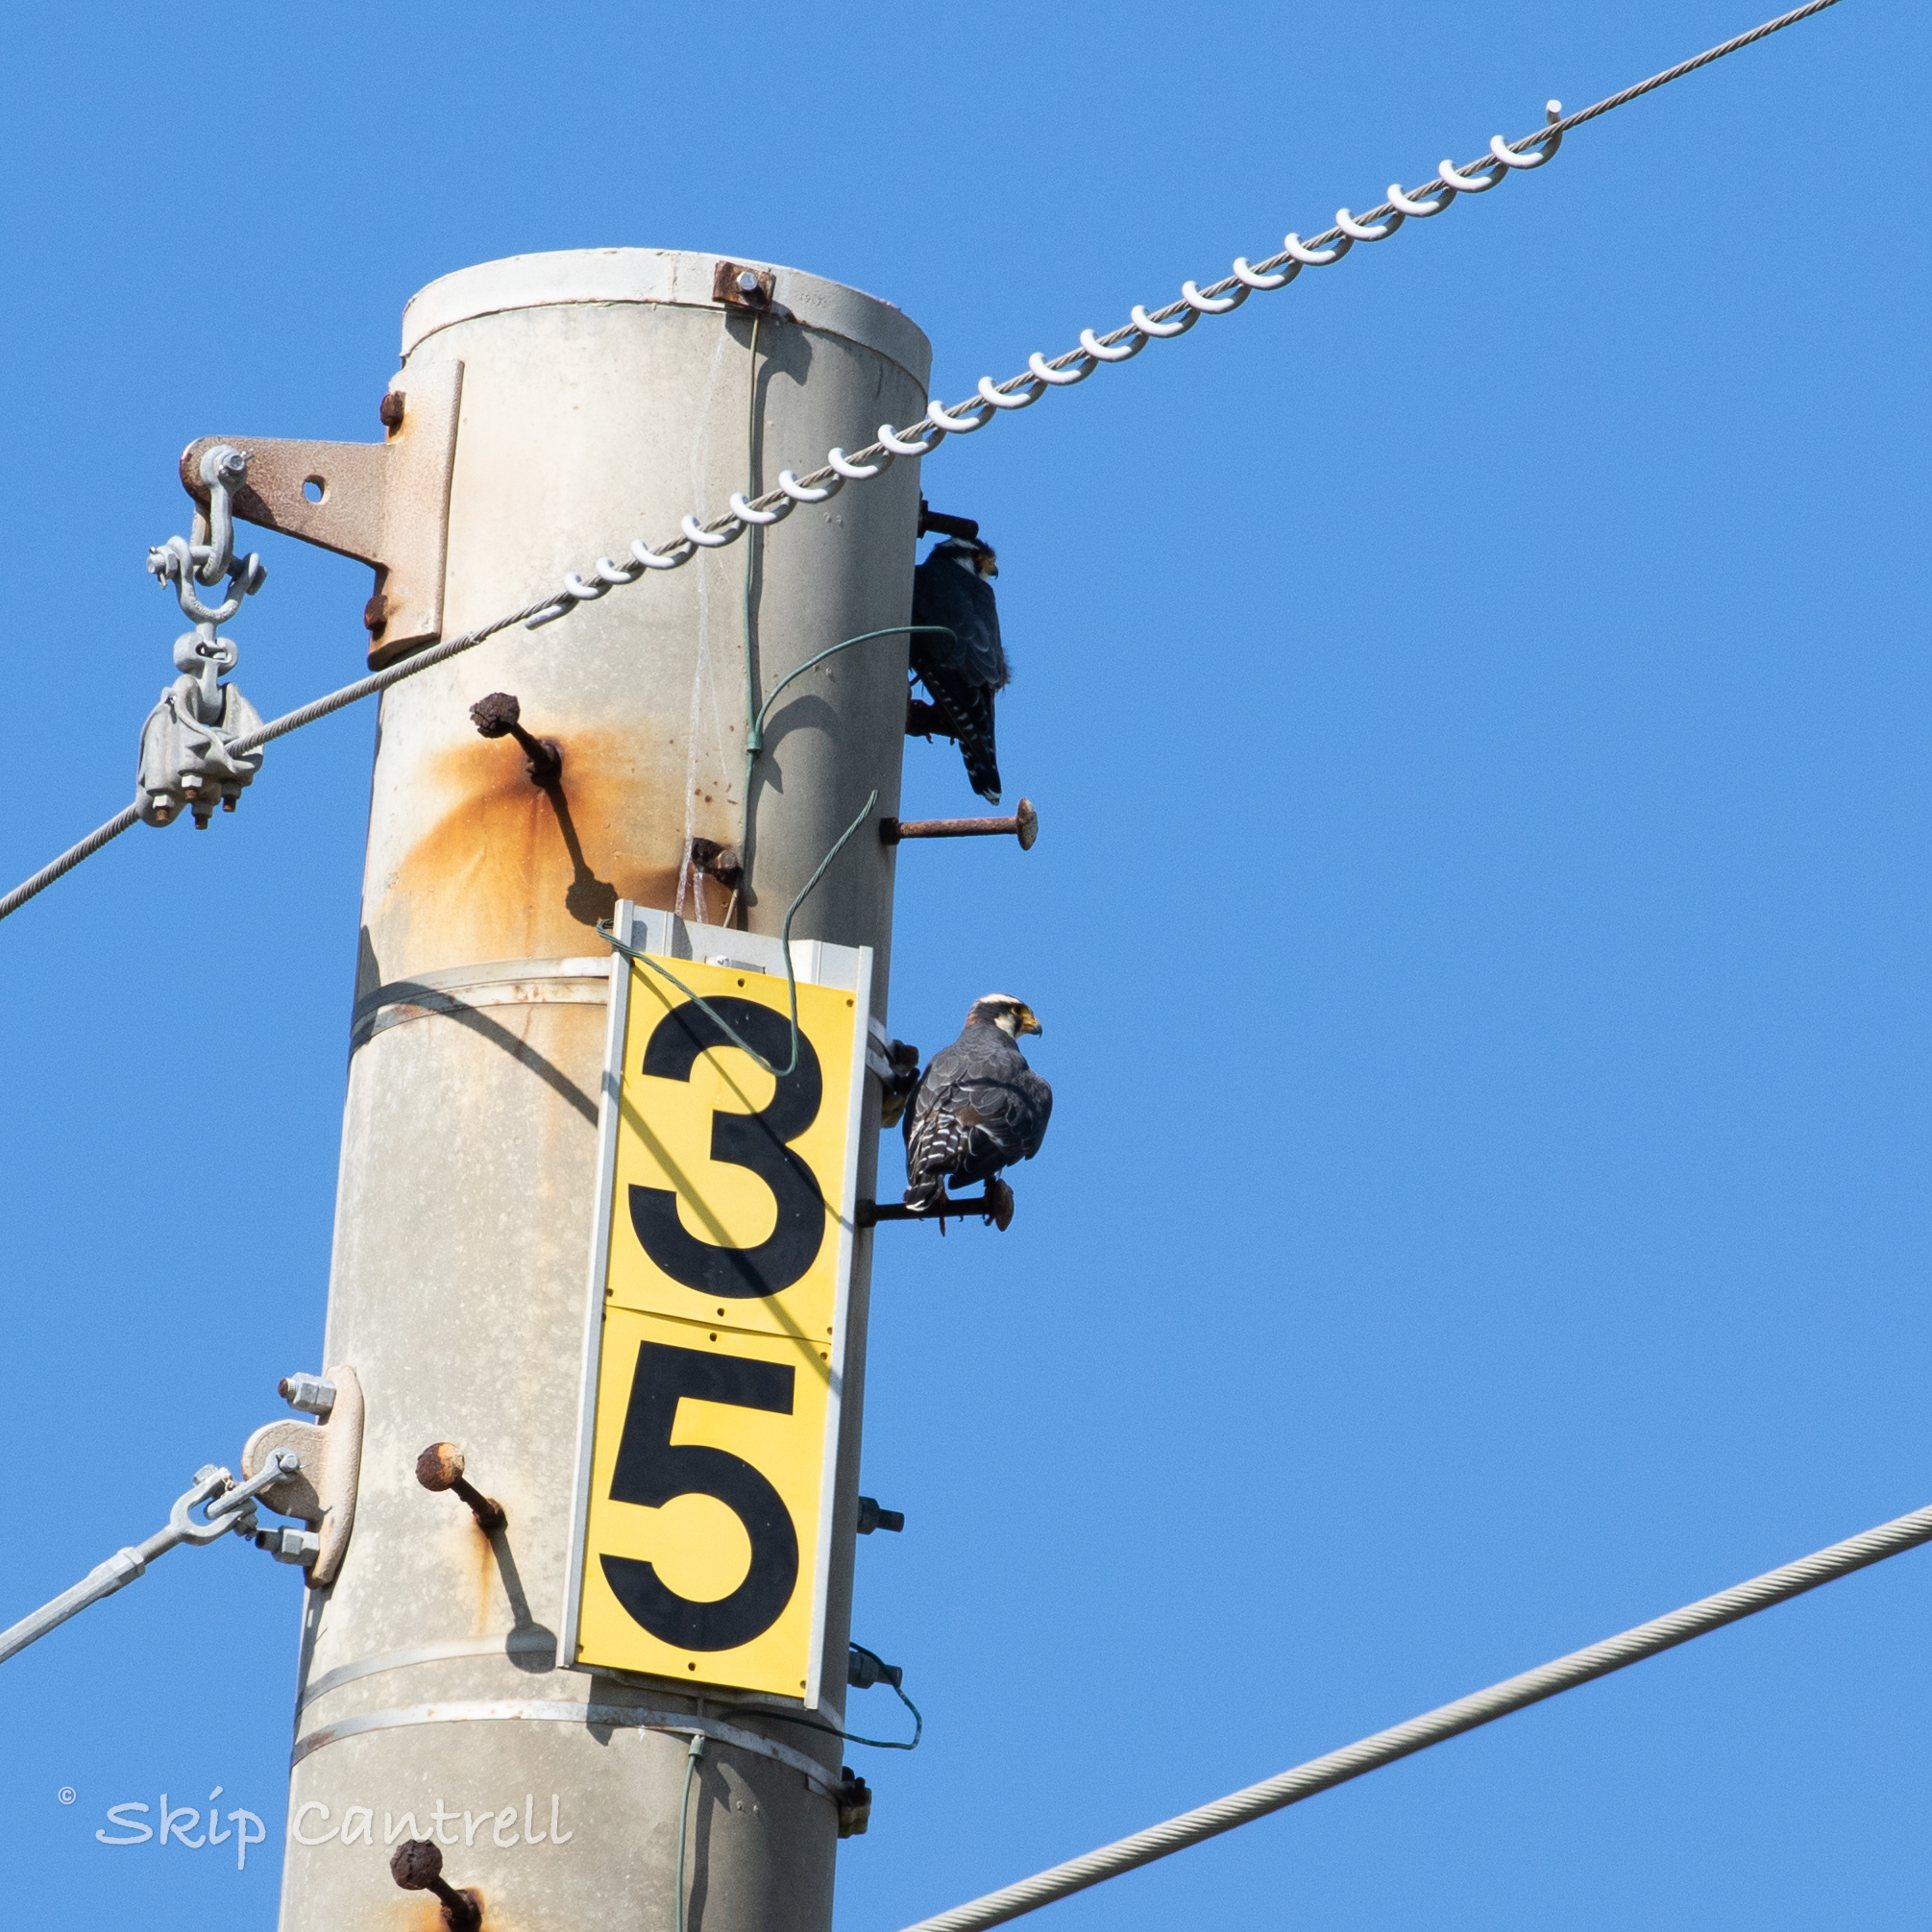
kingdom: Animalia
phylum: Chordata
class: Aves
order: Falconiformes
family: Falconidae
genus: Falco
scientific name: Falco femoralis
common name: Aplomado falcon
